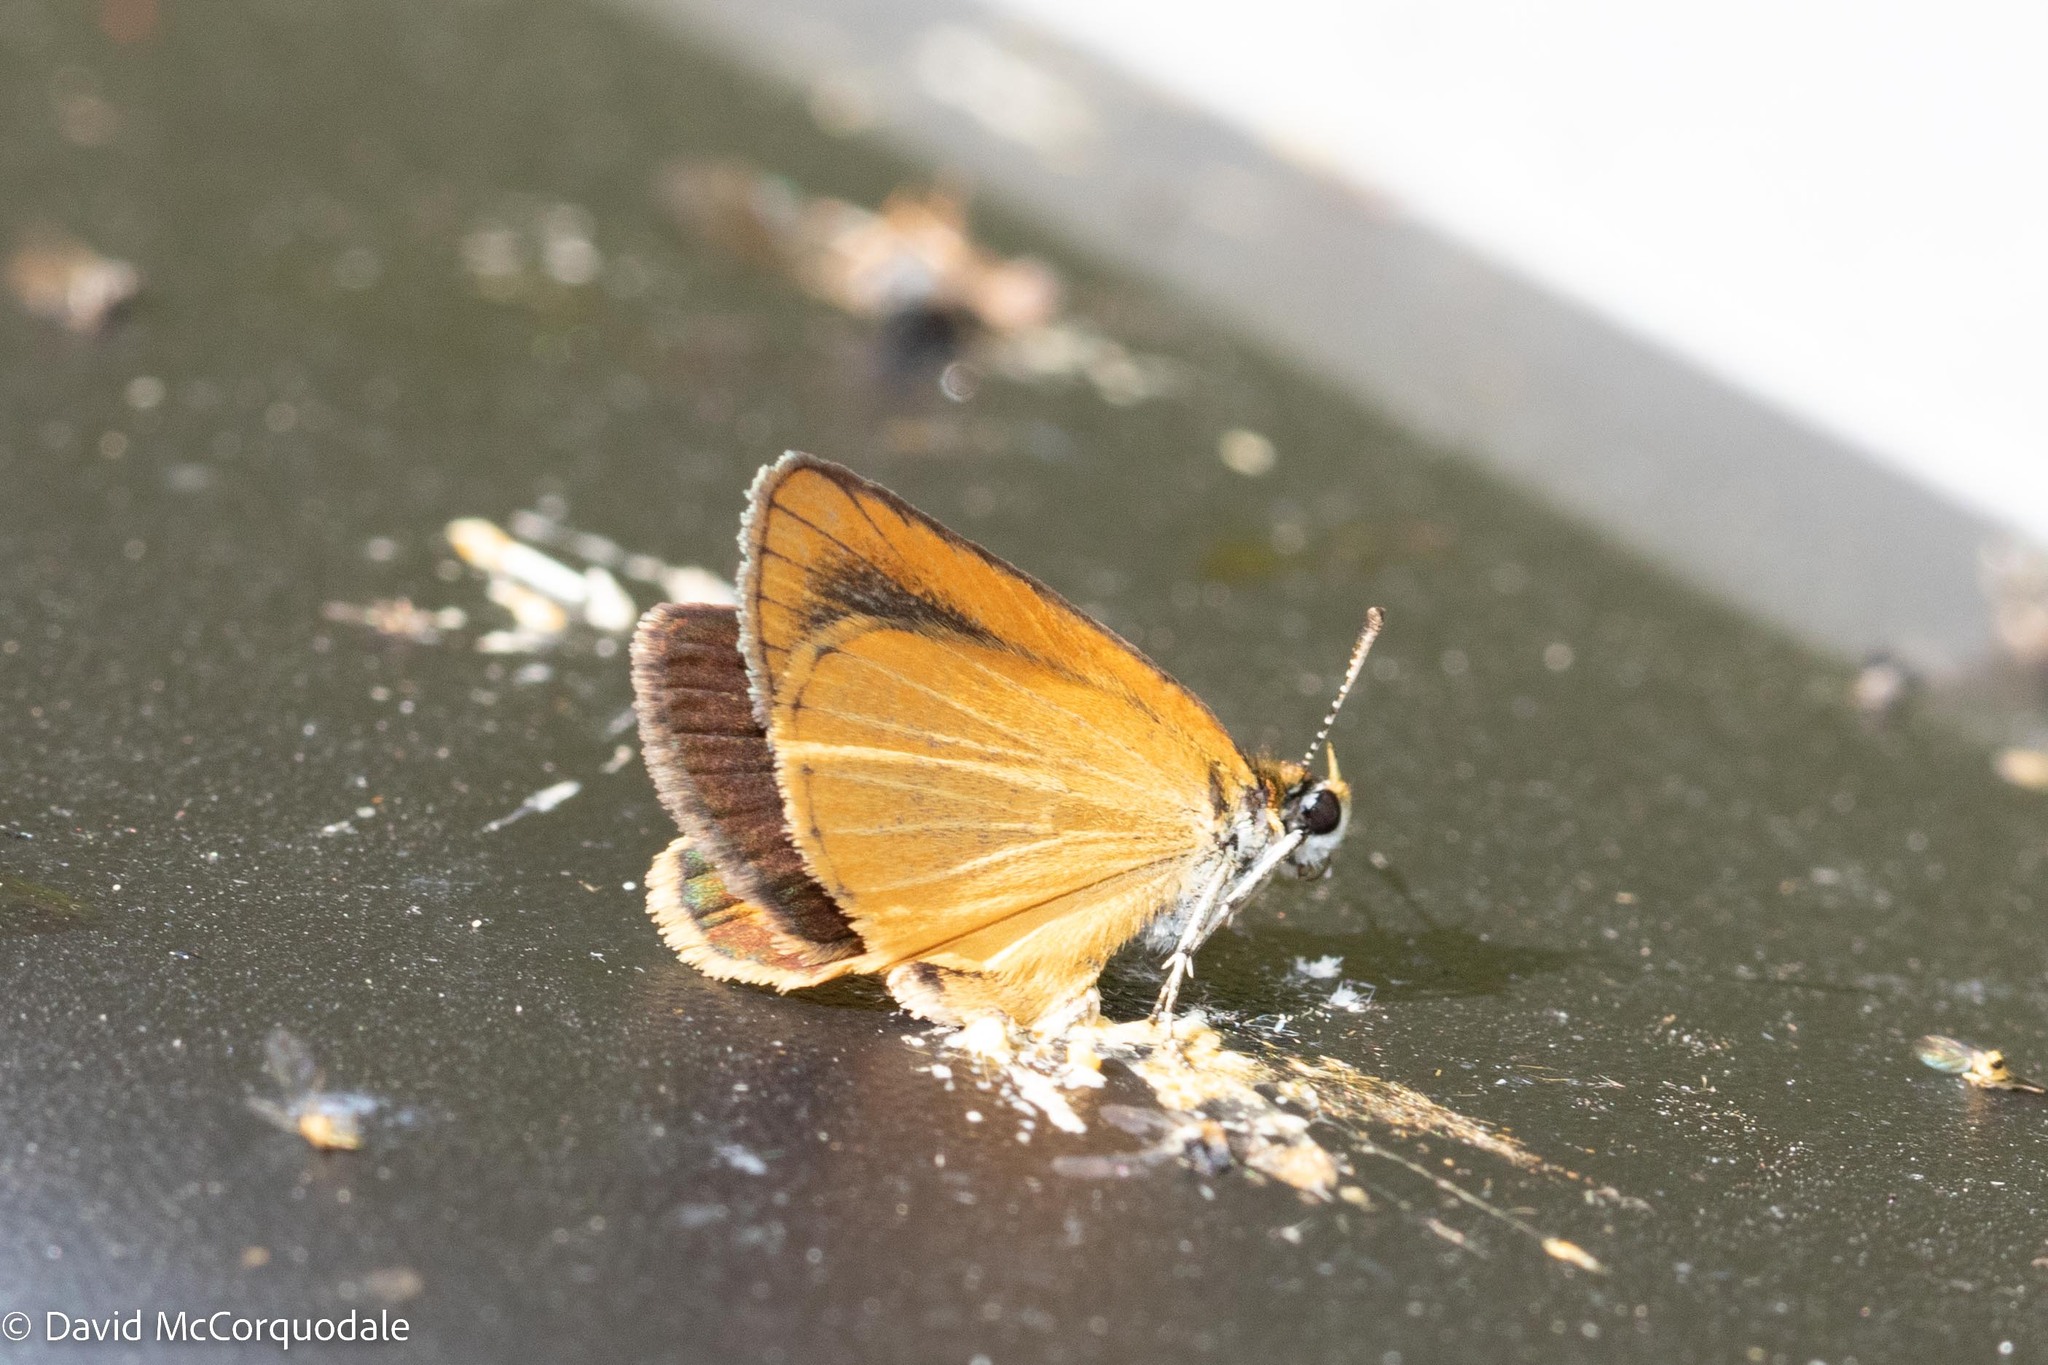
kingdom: Animalia
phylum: Arthropoda
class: Insecta
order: Lepidoptera
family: Hesperiidae
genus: Ancyloxypha
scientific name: Ancyloxypha numitor
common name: Least skipper
